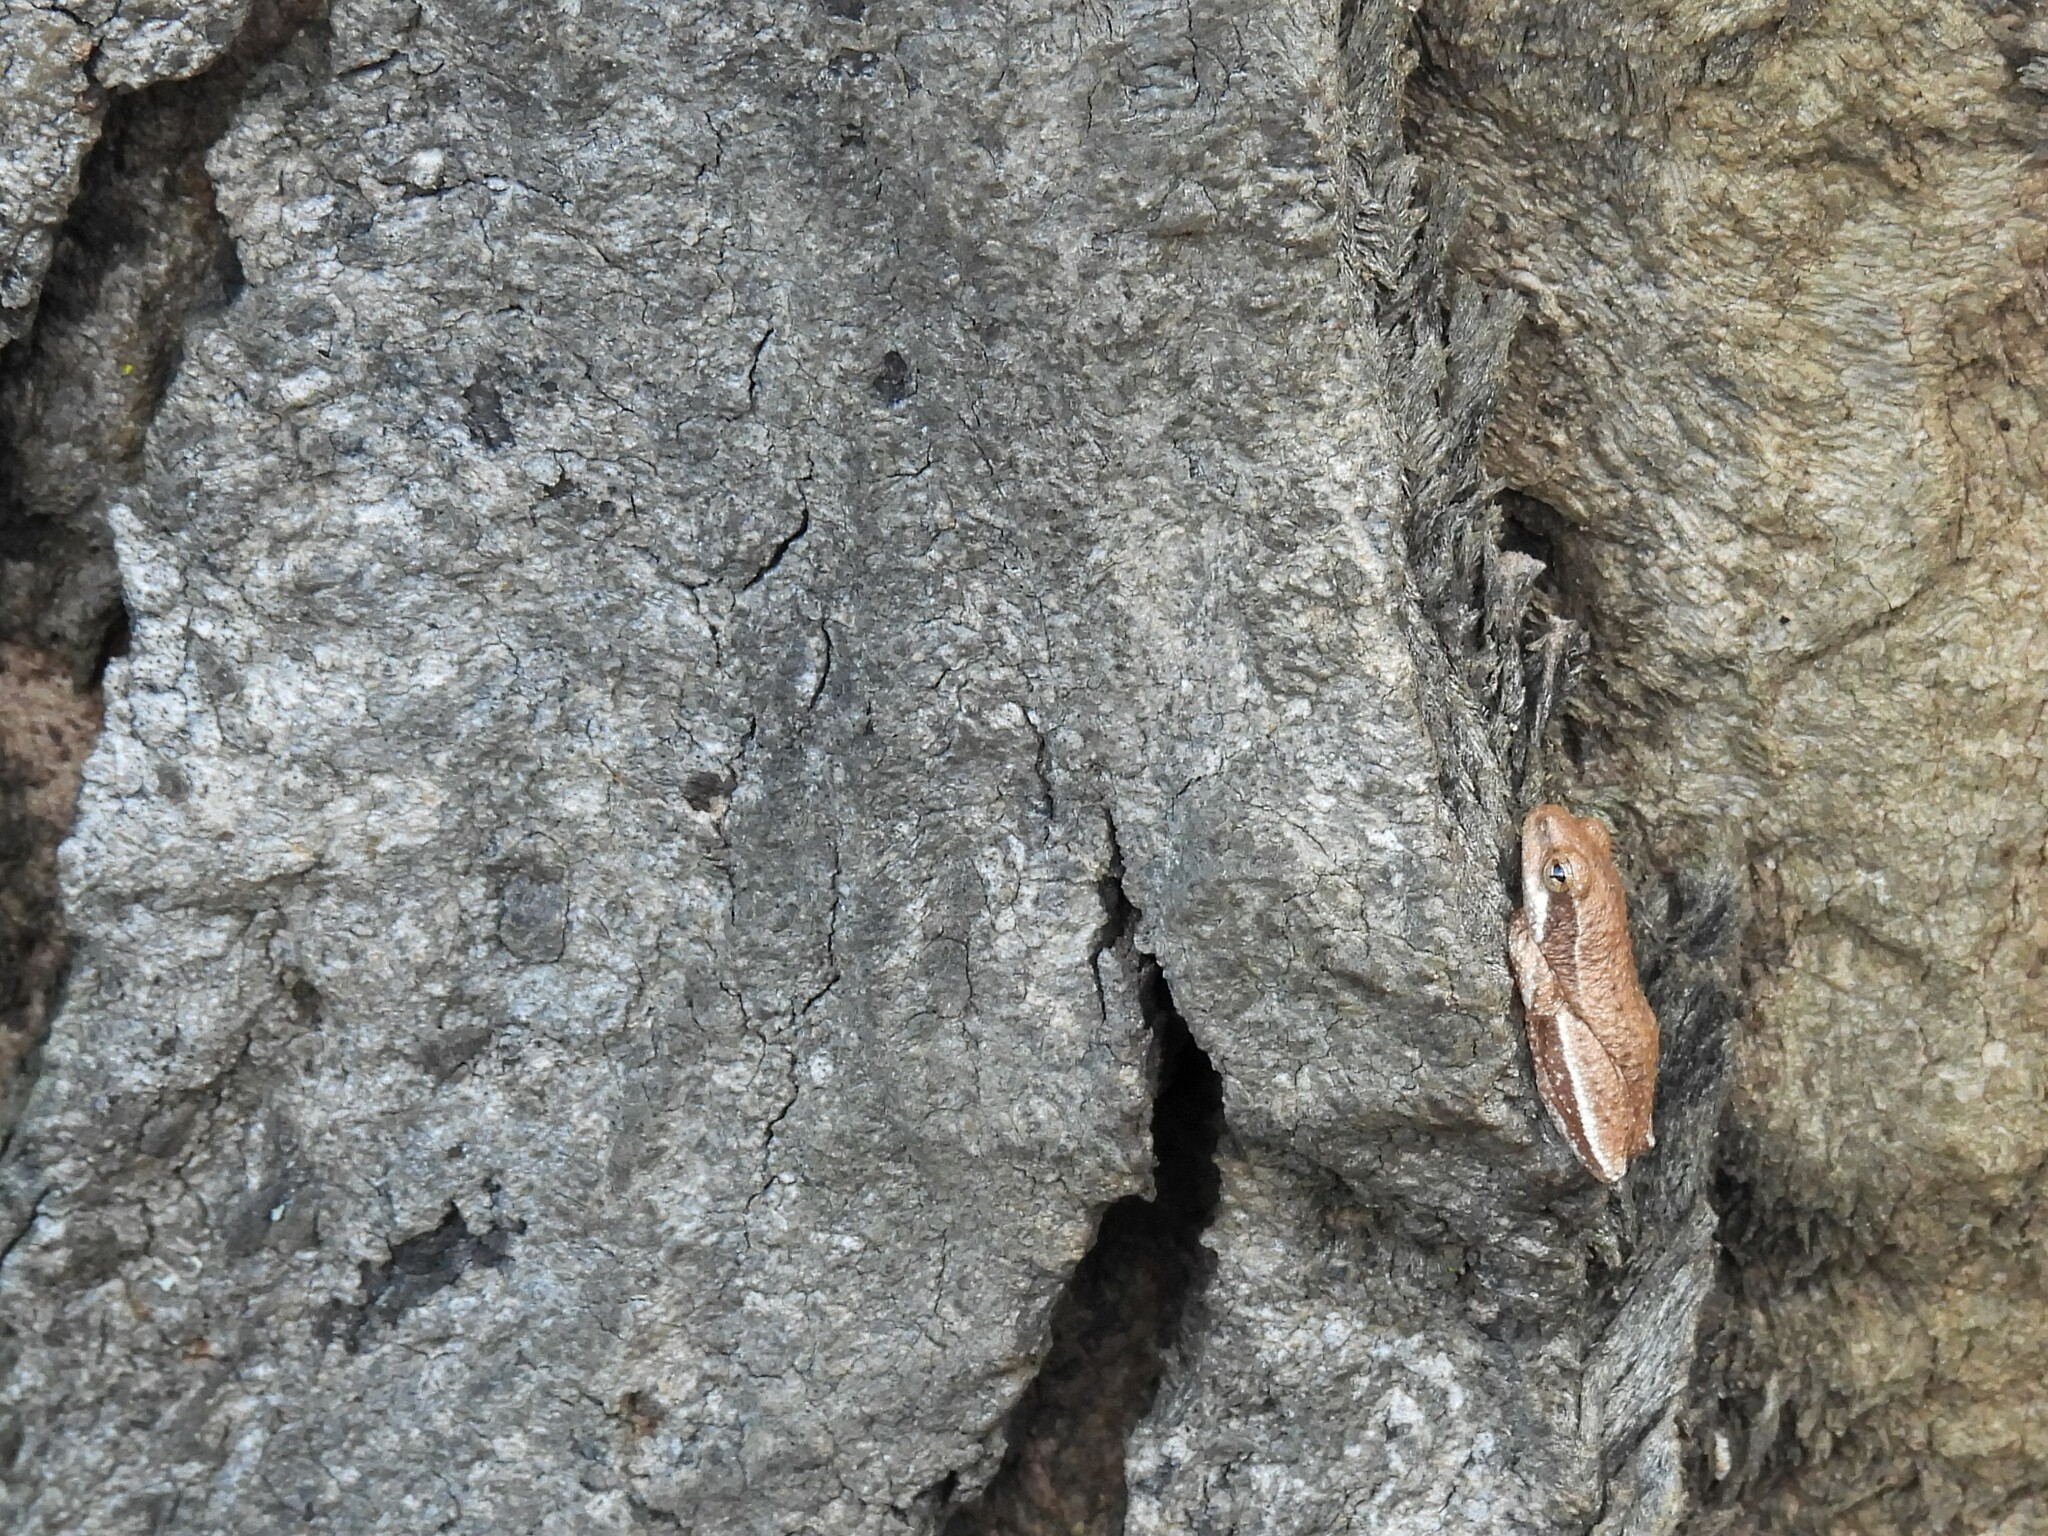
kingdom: Animalia
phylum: Chordata
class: Amphibia
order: Anura
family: Hyperoliidae
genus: Hyperolius
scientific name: Hyperolius marmoratus
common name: Painted reed frog
